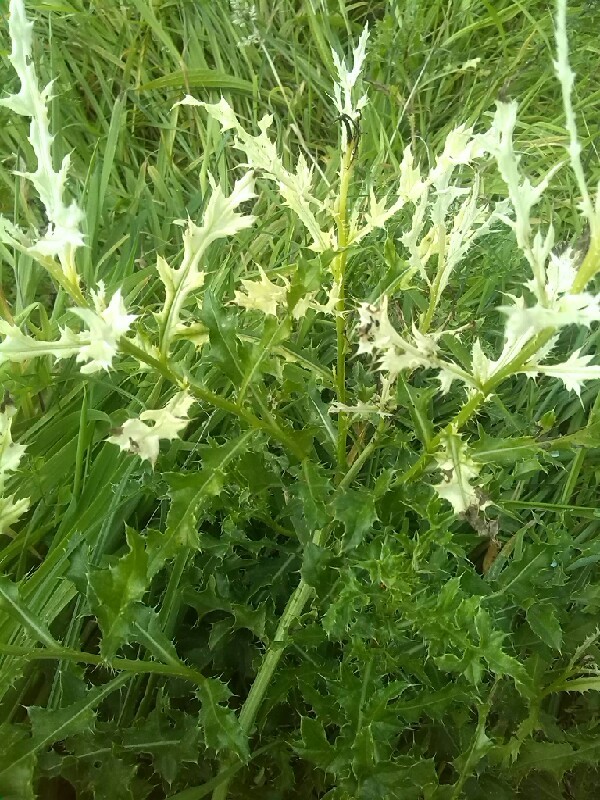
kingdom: Bacteria
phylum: Proteobacteria
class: Gammaproteobacteria
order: Pseudomonadales
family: Pseudomonadaceae
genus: Pseudomonas
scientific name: Pseudomonas syringae
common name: Bacterial speck
